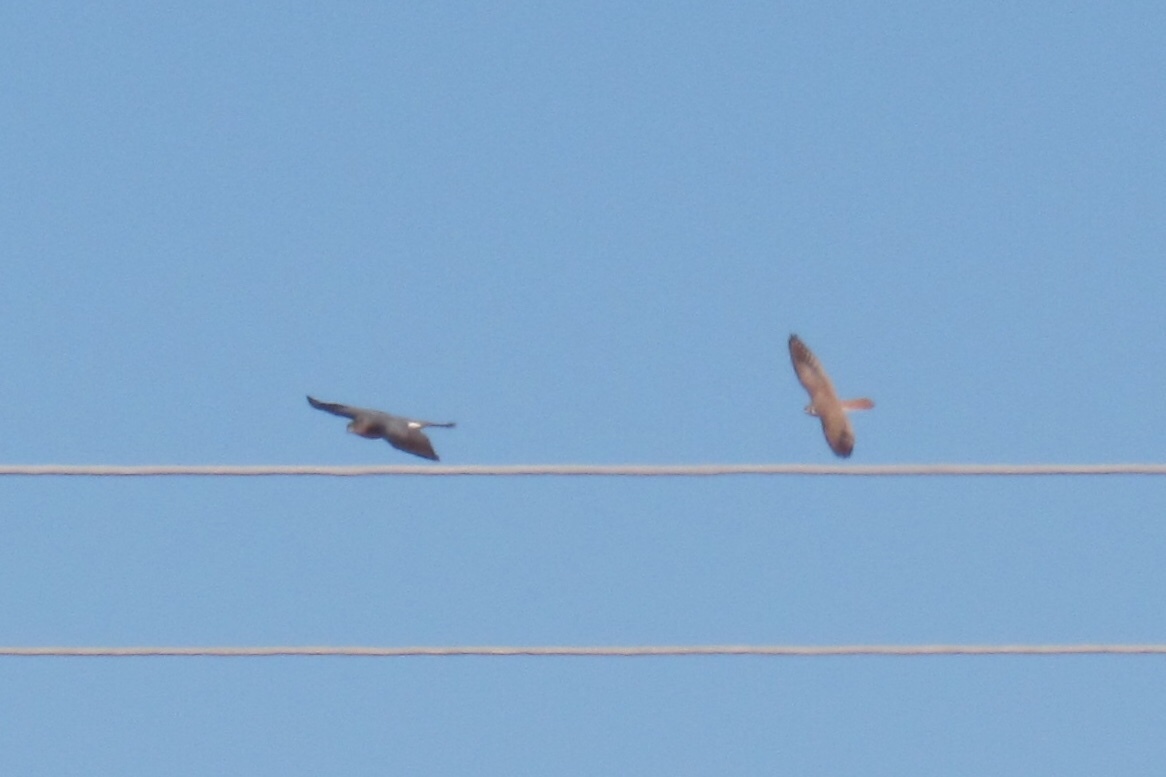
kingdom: Animalia
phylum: Chordata
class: Aves
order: Falconiformes
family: Falconidae
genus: Falco
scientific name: Falco sparverius
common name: American kestrel
